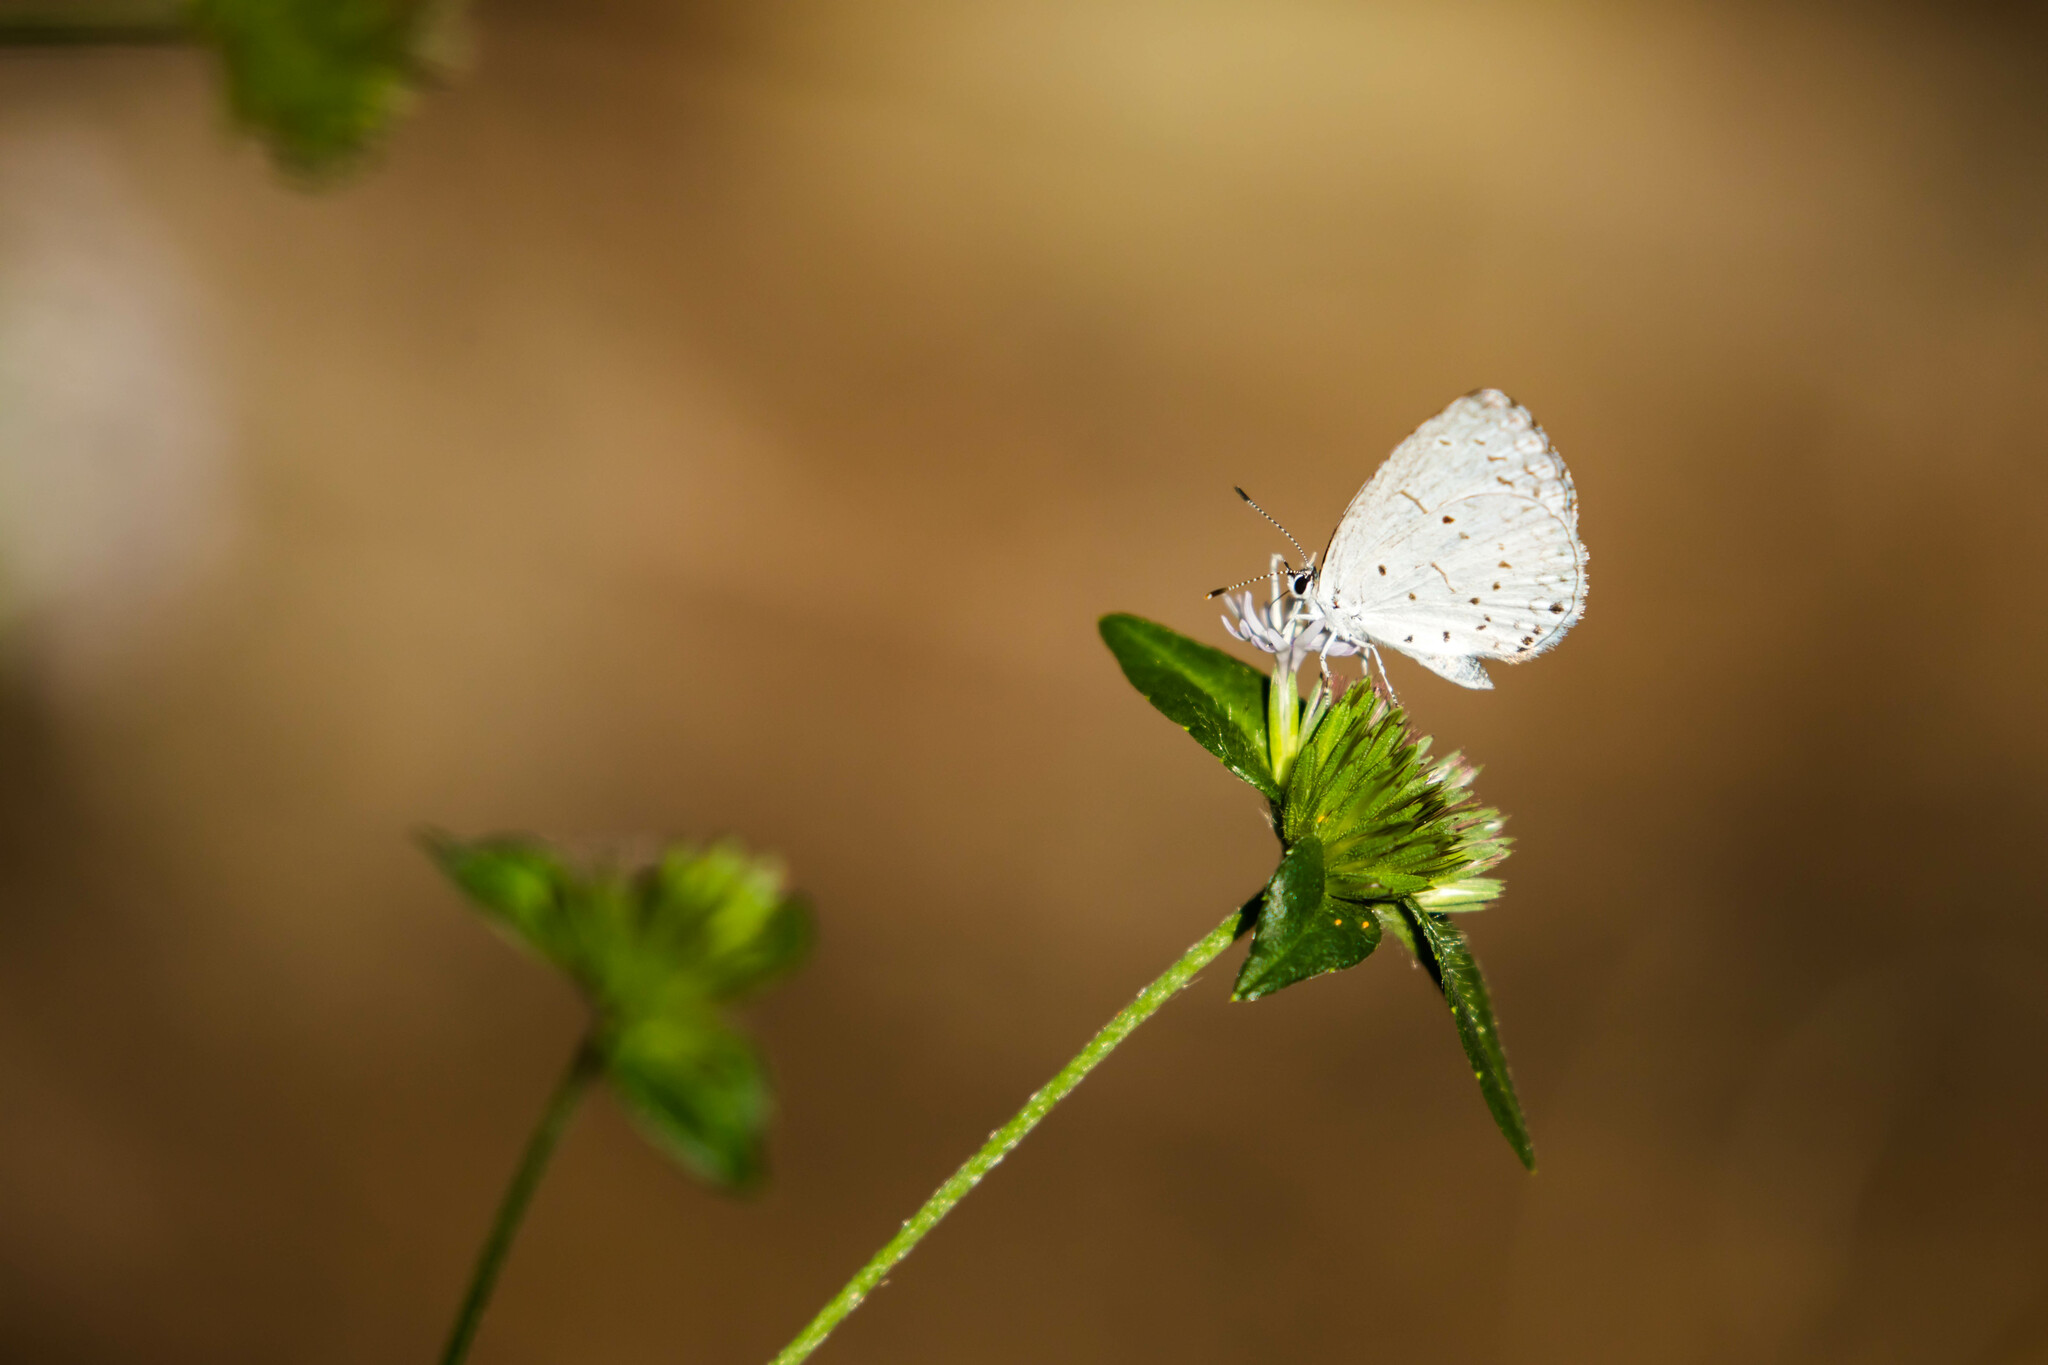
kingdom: Animalia
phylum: Arthropoda
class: Insecta
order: Lepidoptera
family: Lycaenidae
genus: Cyaniris
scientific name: Cyaniris neglecta
